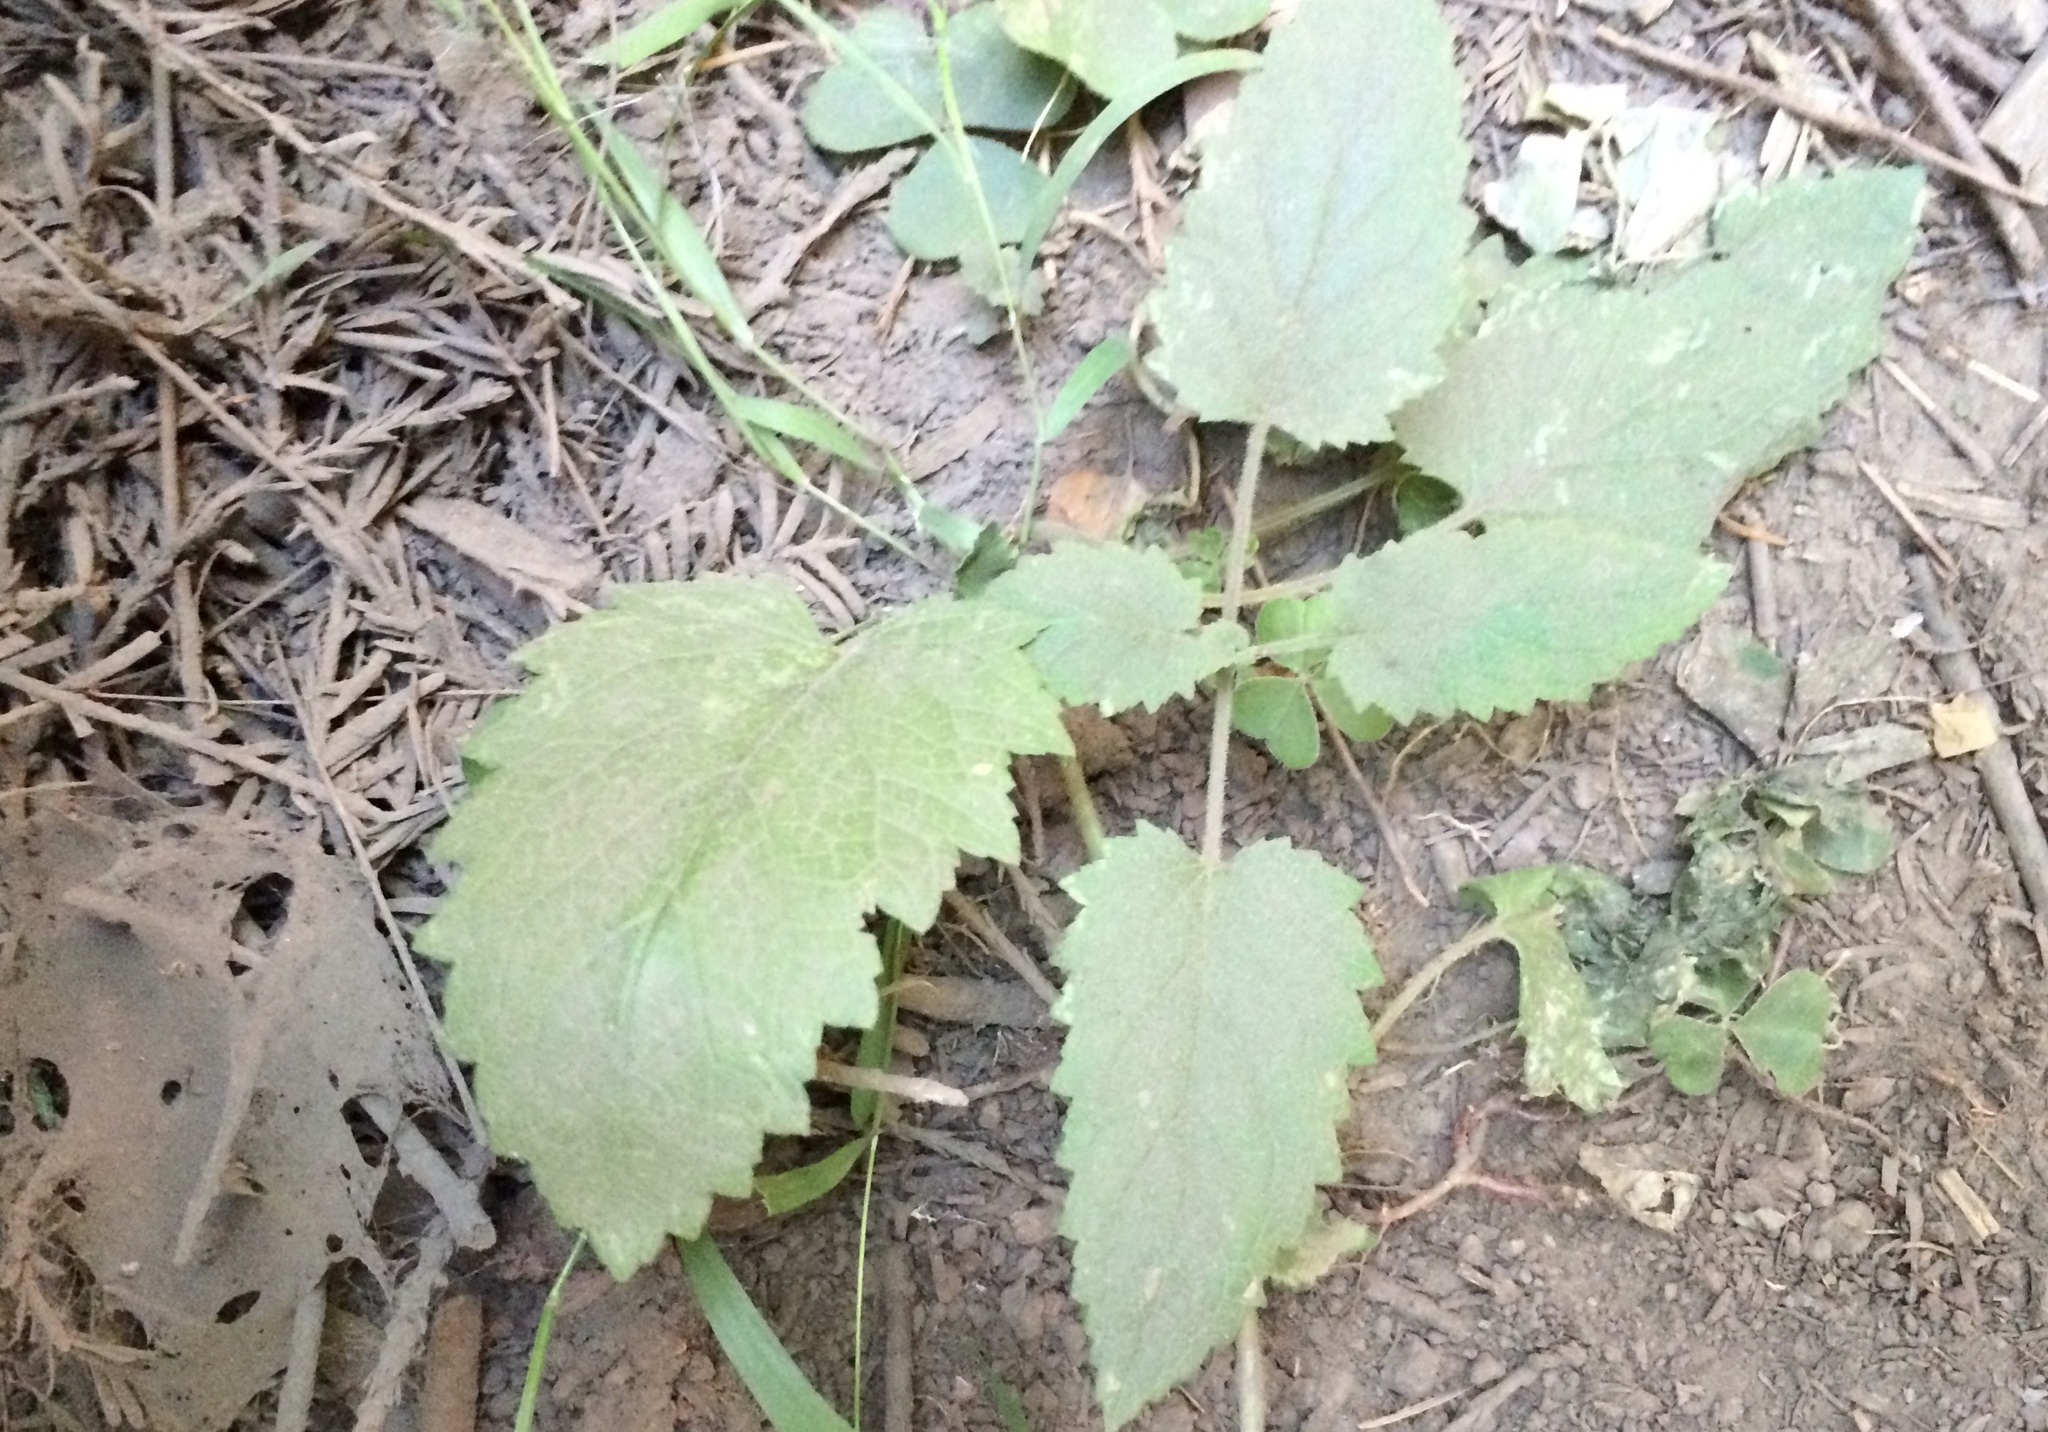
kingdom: Plantae
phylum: Tracheophyta
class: Magnoliopsida
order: Lamiales
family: Scrophulariaceae
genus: Scrophularia
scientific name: Scrophularia californica
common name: California figwort
